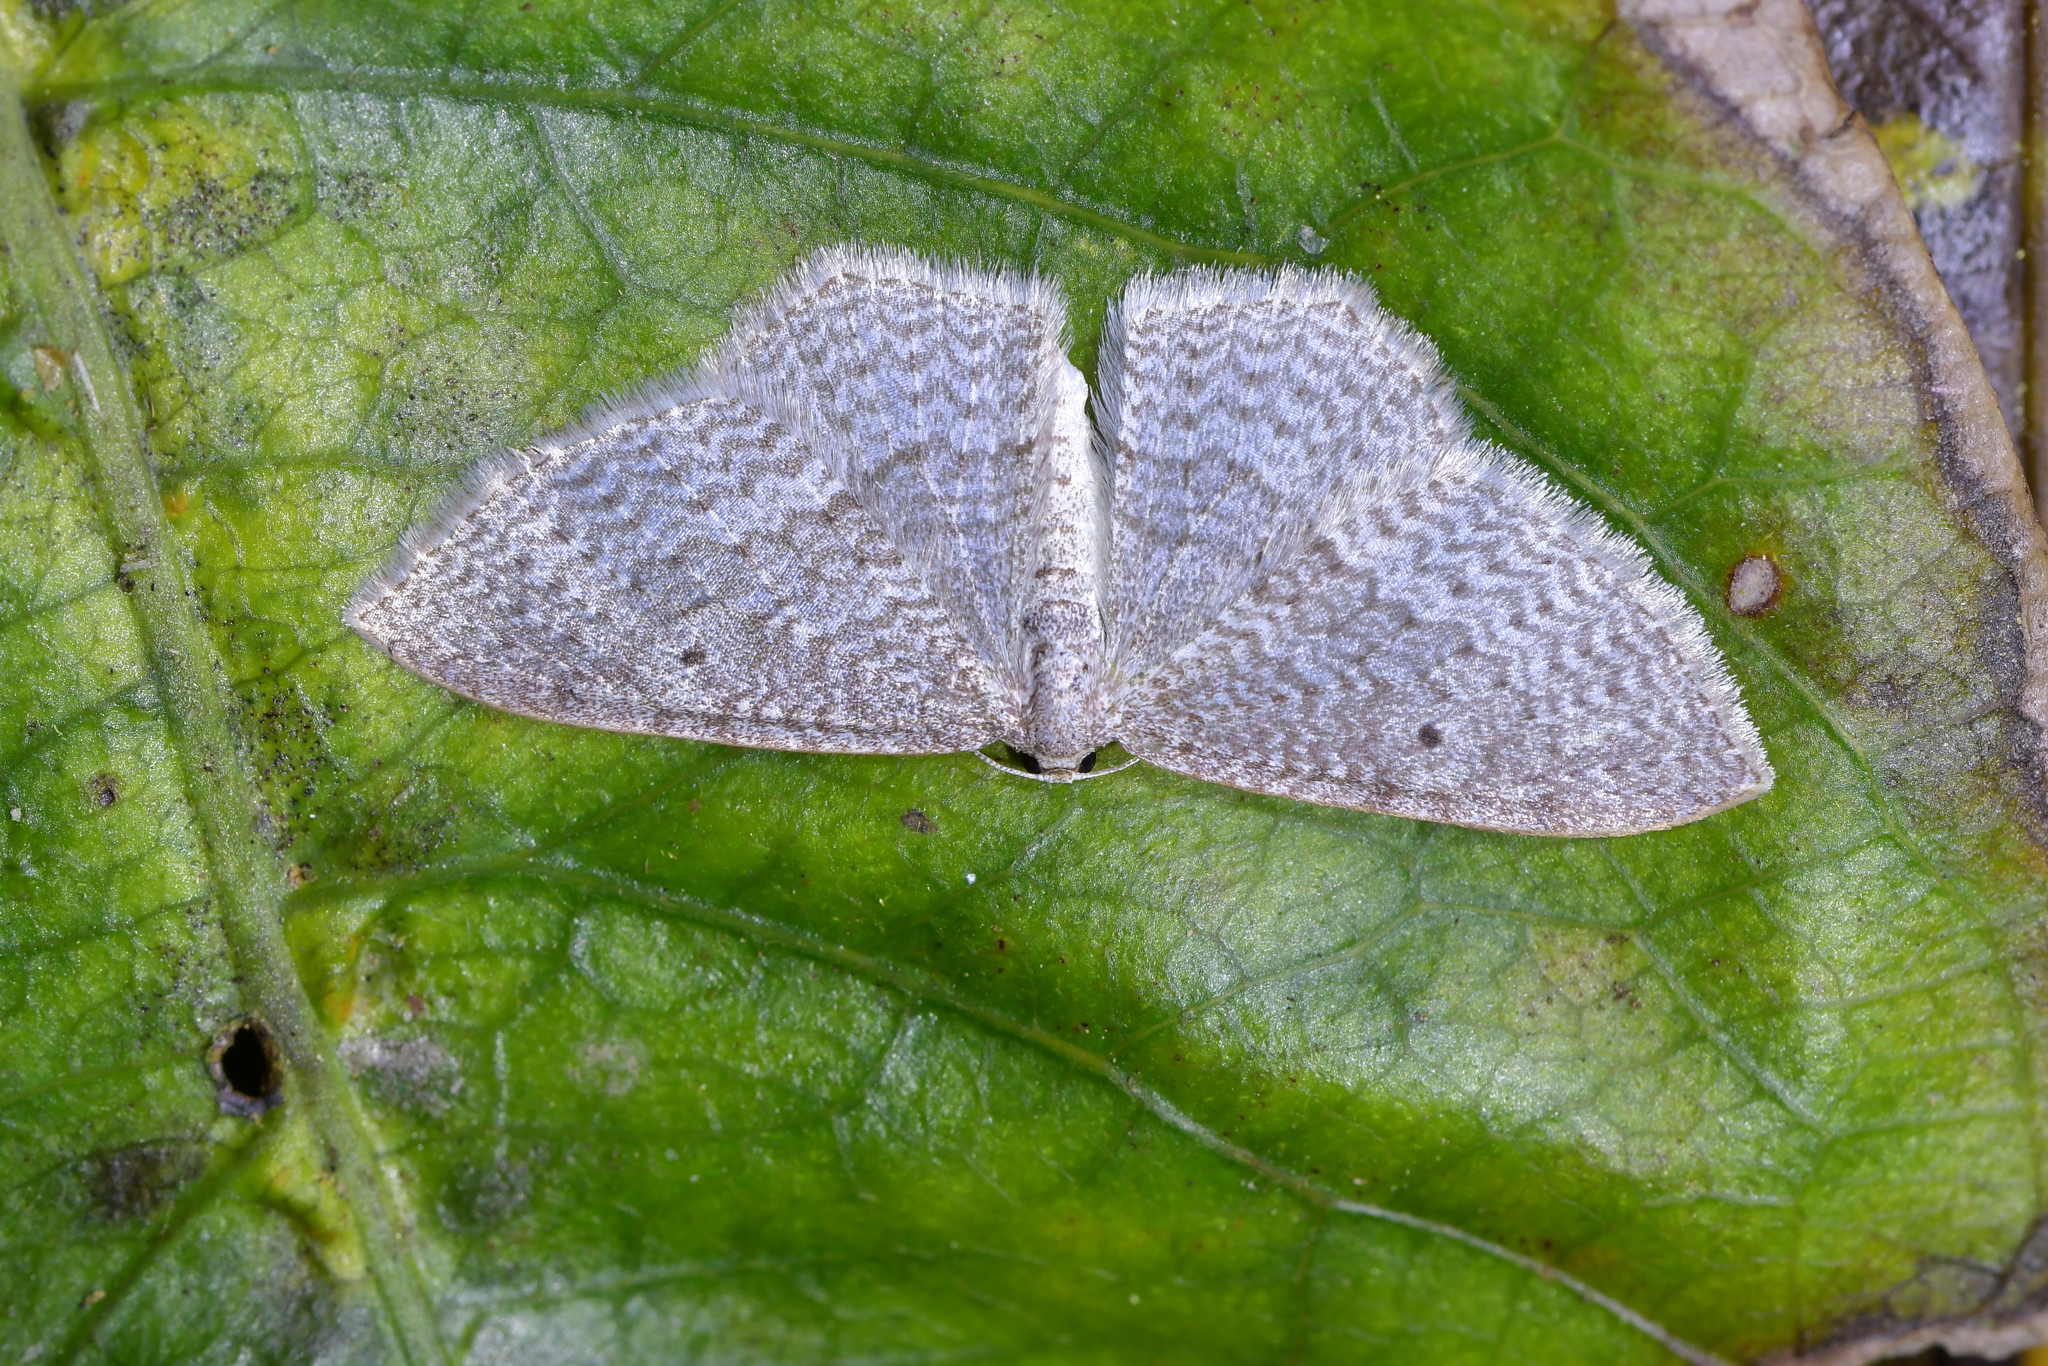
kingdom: Animalia
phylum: Arthropoda
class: Insecta
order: Lepidoptera
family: Geometridae
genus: Poecilasthena
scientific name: Poecilasthena subpurpureata
